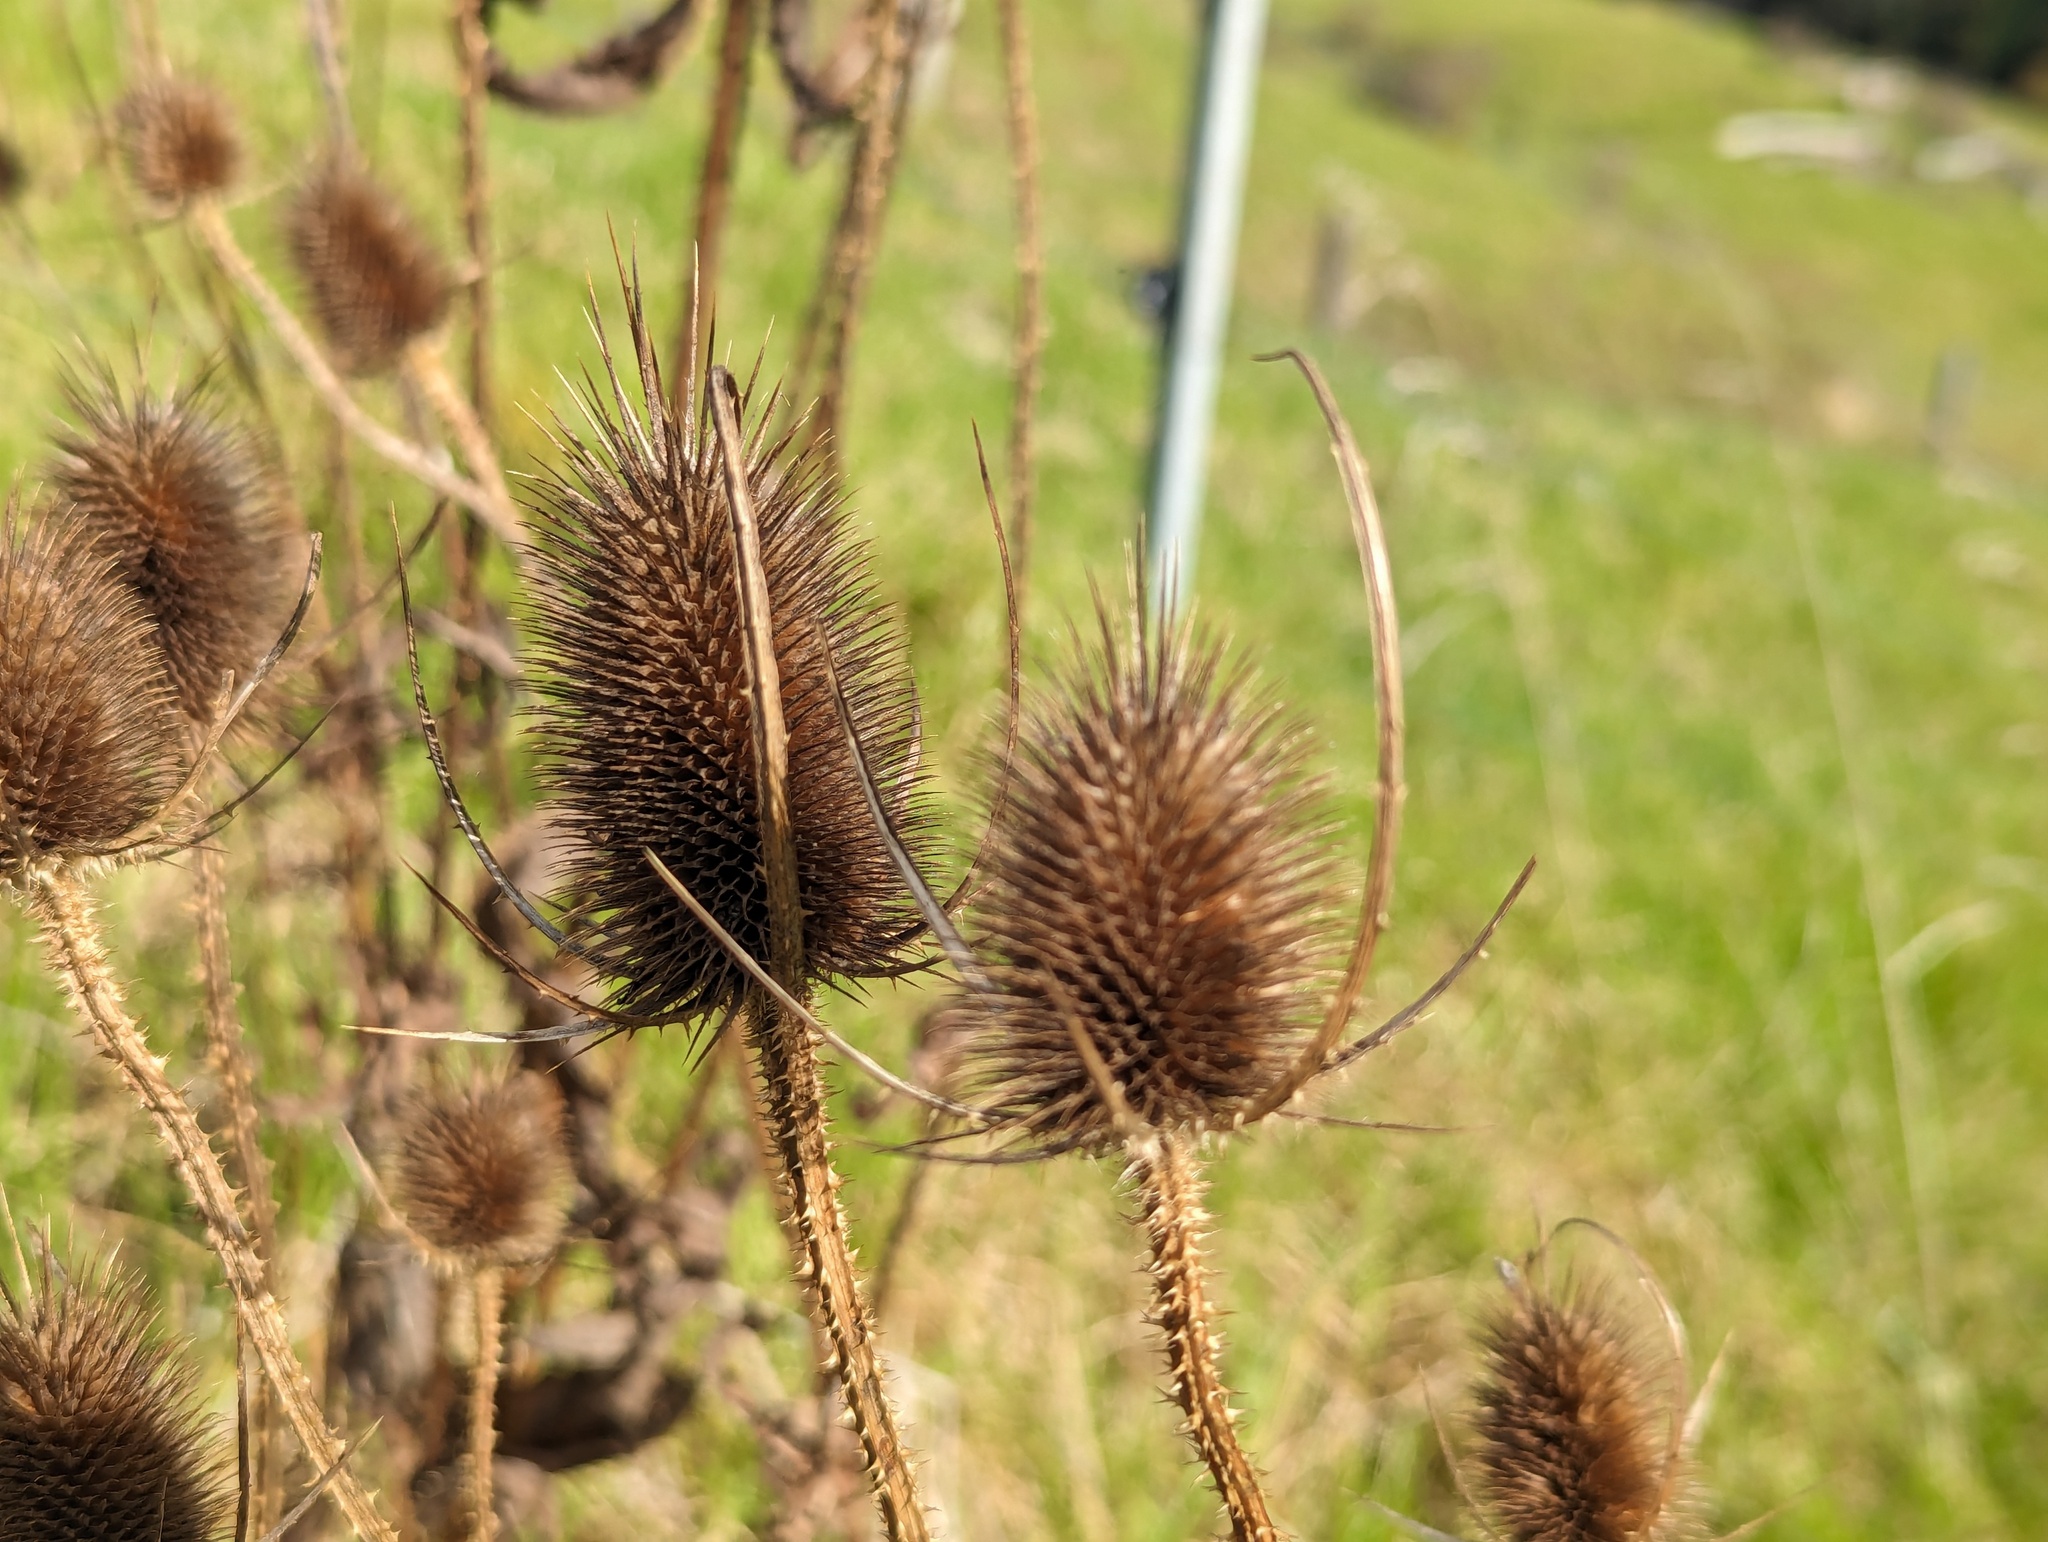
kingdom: Plantae
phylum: Tracheophyta
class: Magnoliopsida
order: Dipsacales
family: Caprifoliaceae
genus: Dipsacus
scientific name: Dipsacus fullonum
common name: Teasel
